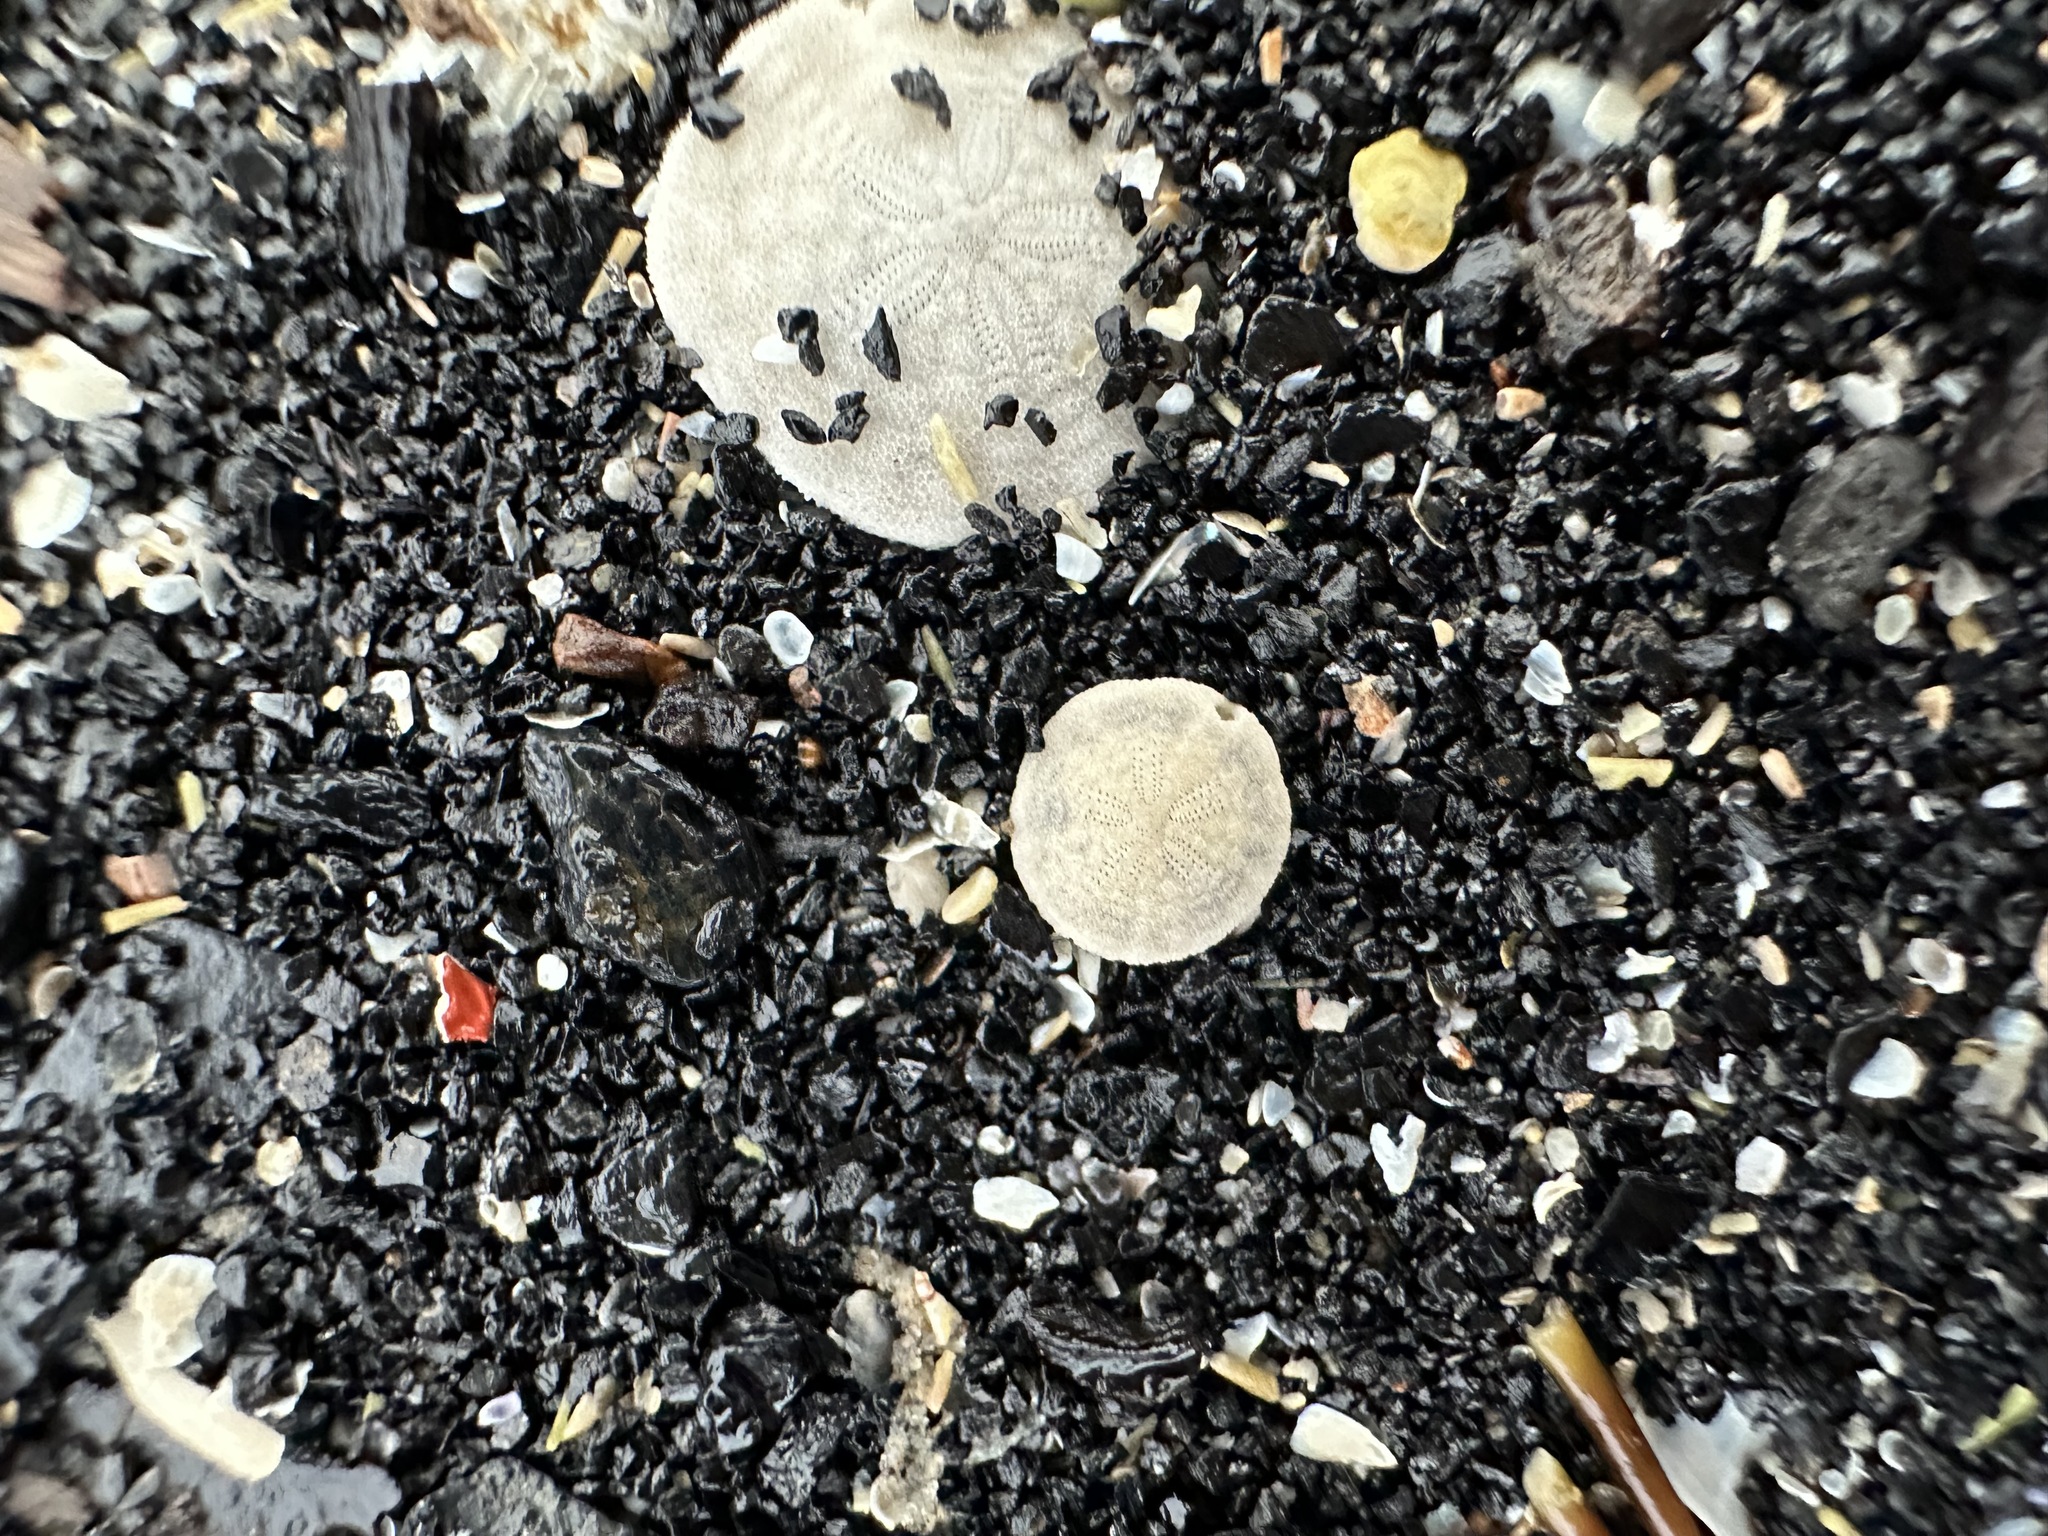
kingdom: Animalia
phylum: Echinodermata
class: Echinoidea
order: Echinolampadacea
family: Echinarachniidae
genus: Echinarachnius
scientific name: Echinarachnius parma
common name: Common sand dollar
